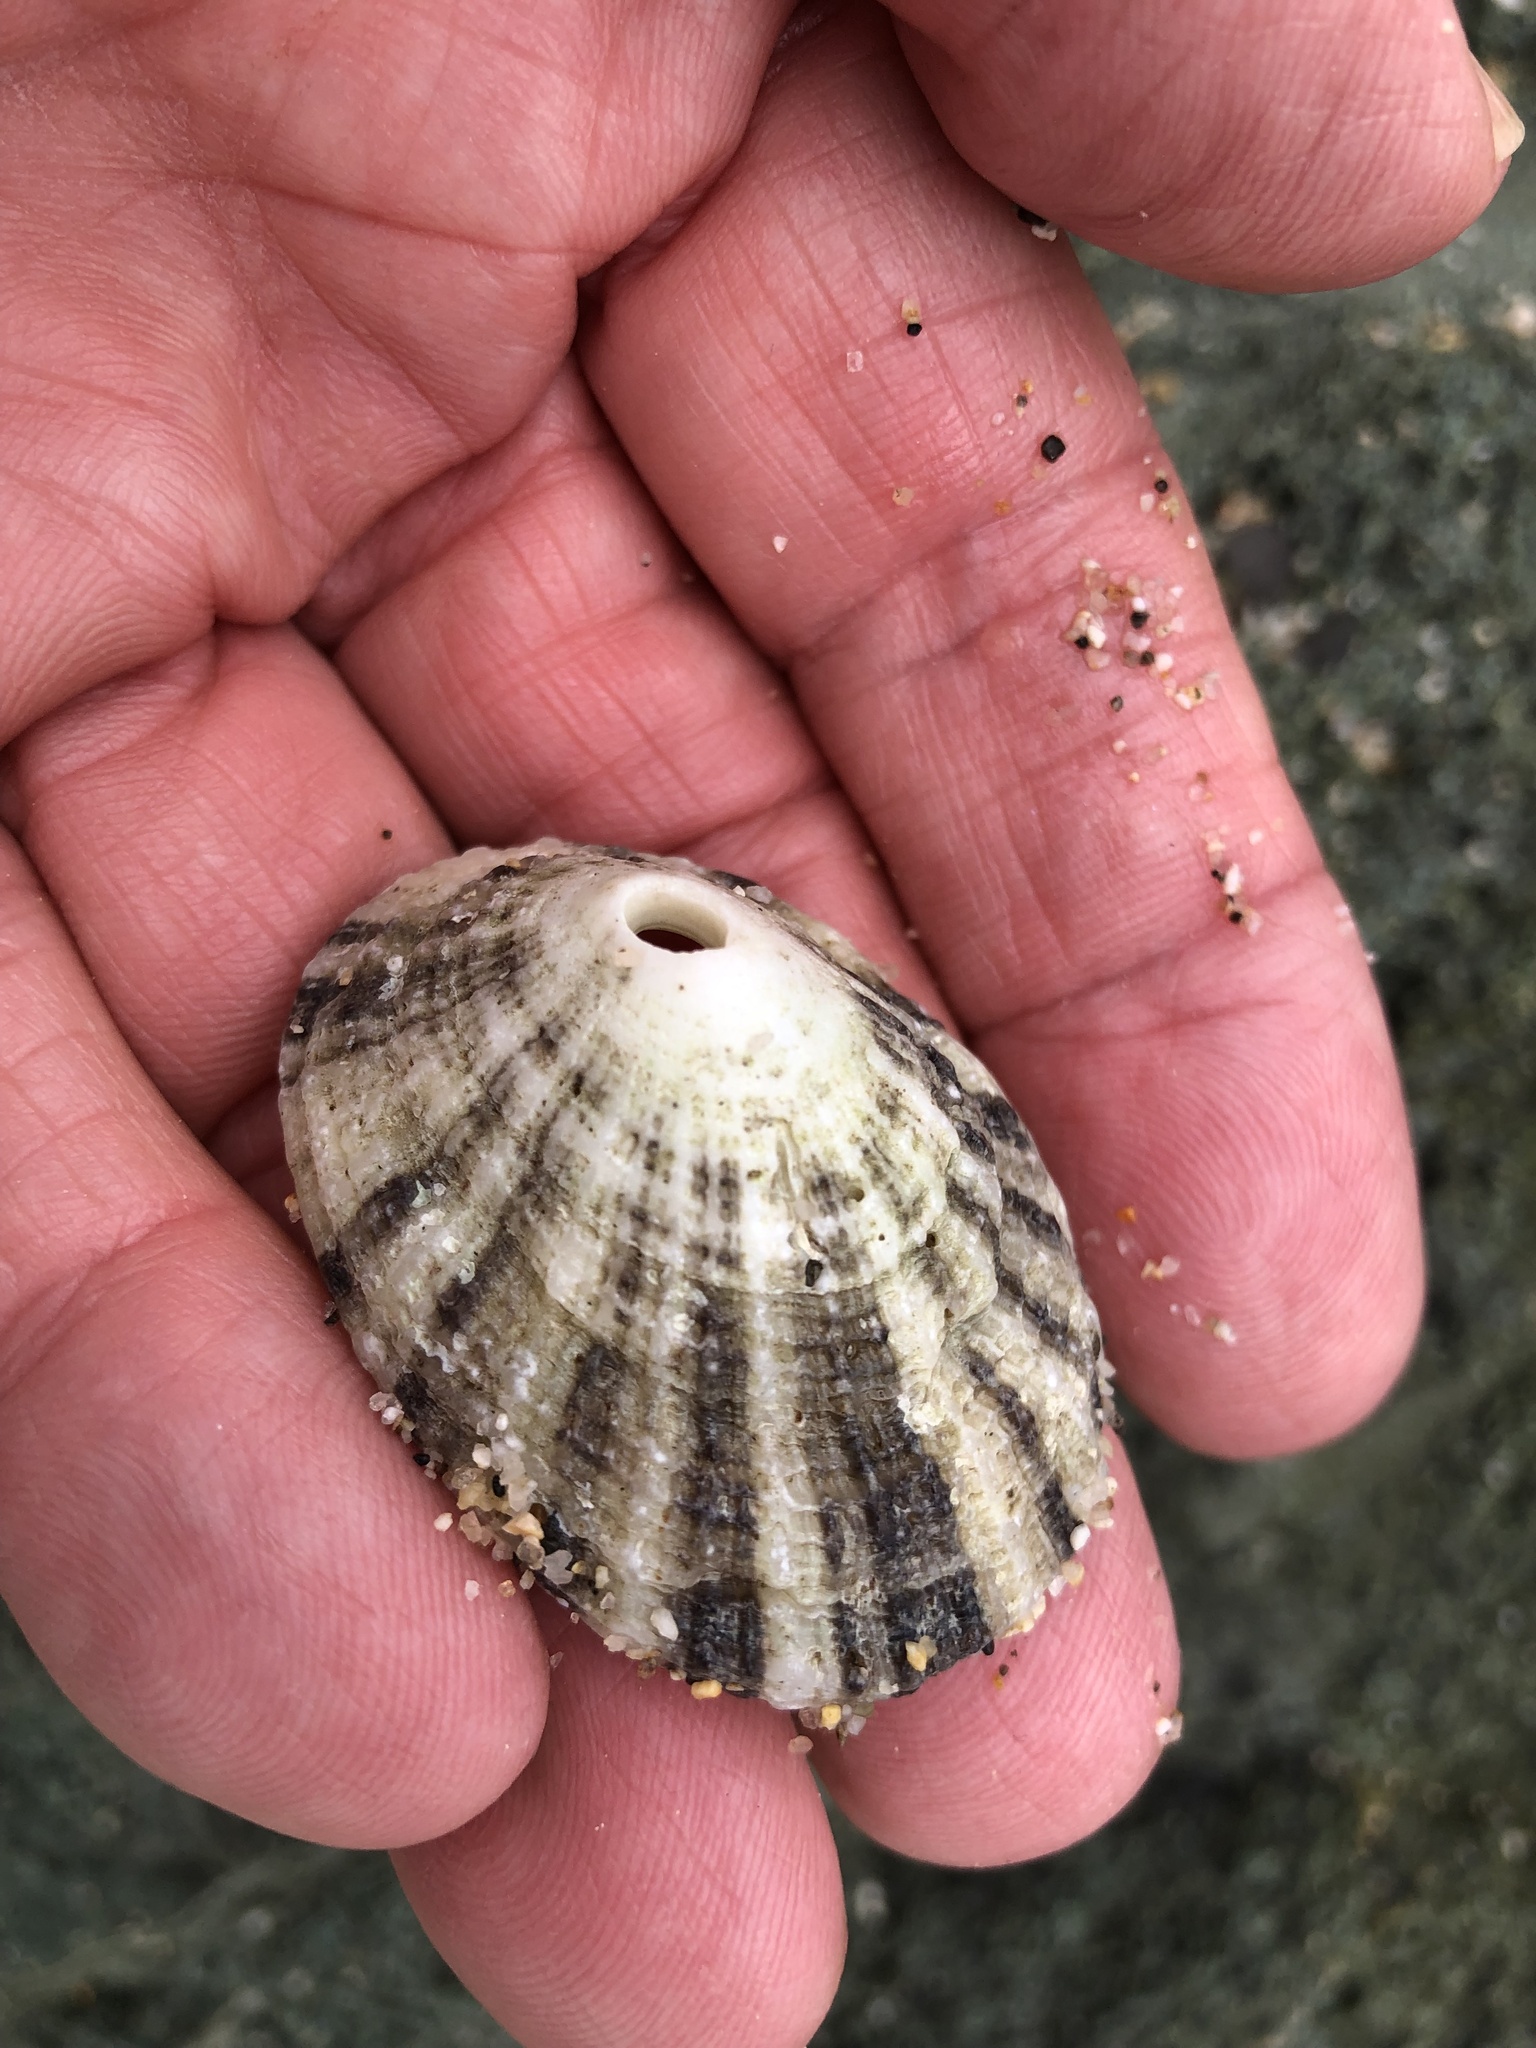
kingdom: Animalia
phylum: Mollusca
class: Gastropoda
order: Lepetellida
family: Fissurellidae
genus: Diodora
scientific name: Diodora aspera
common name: Rough keyhole limpet
